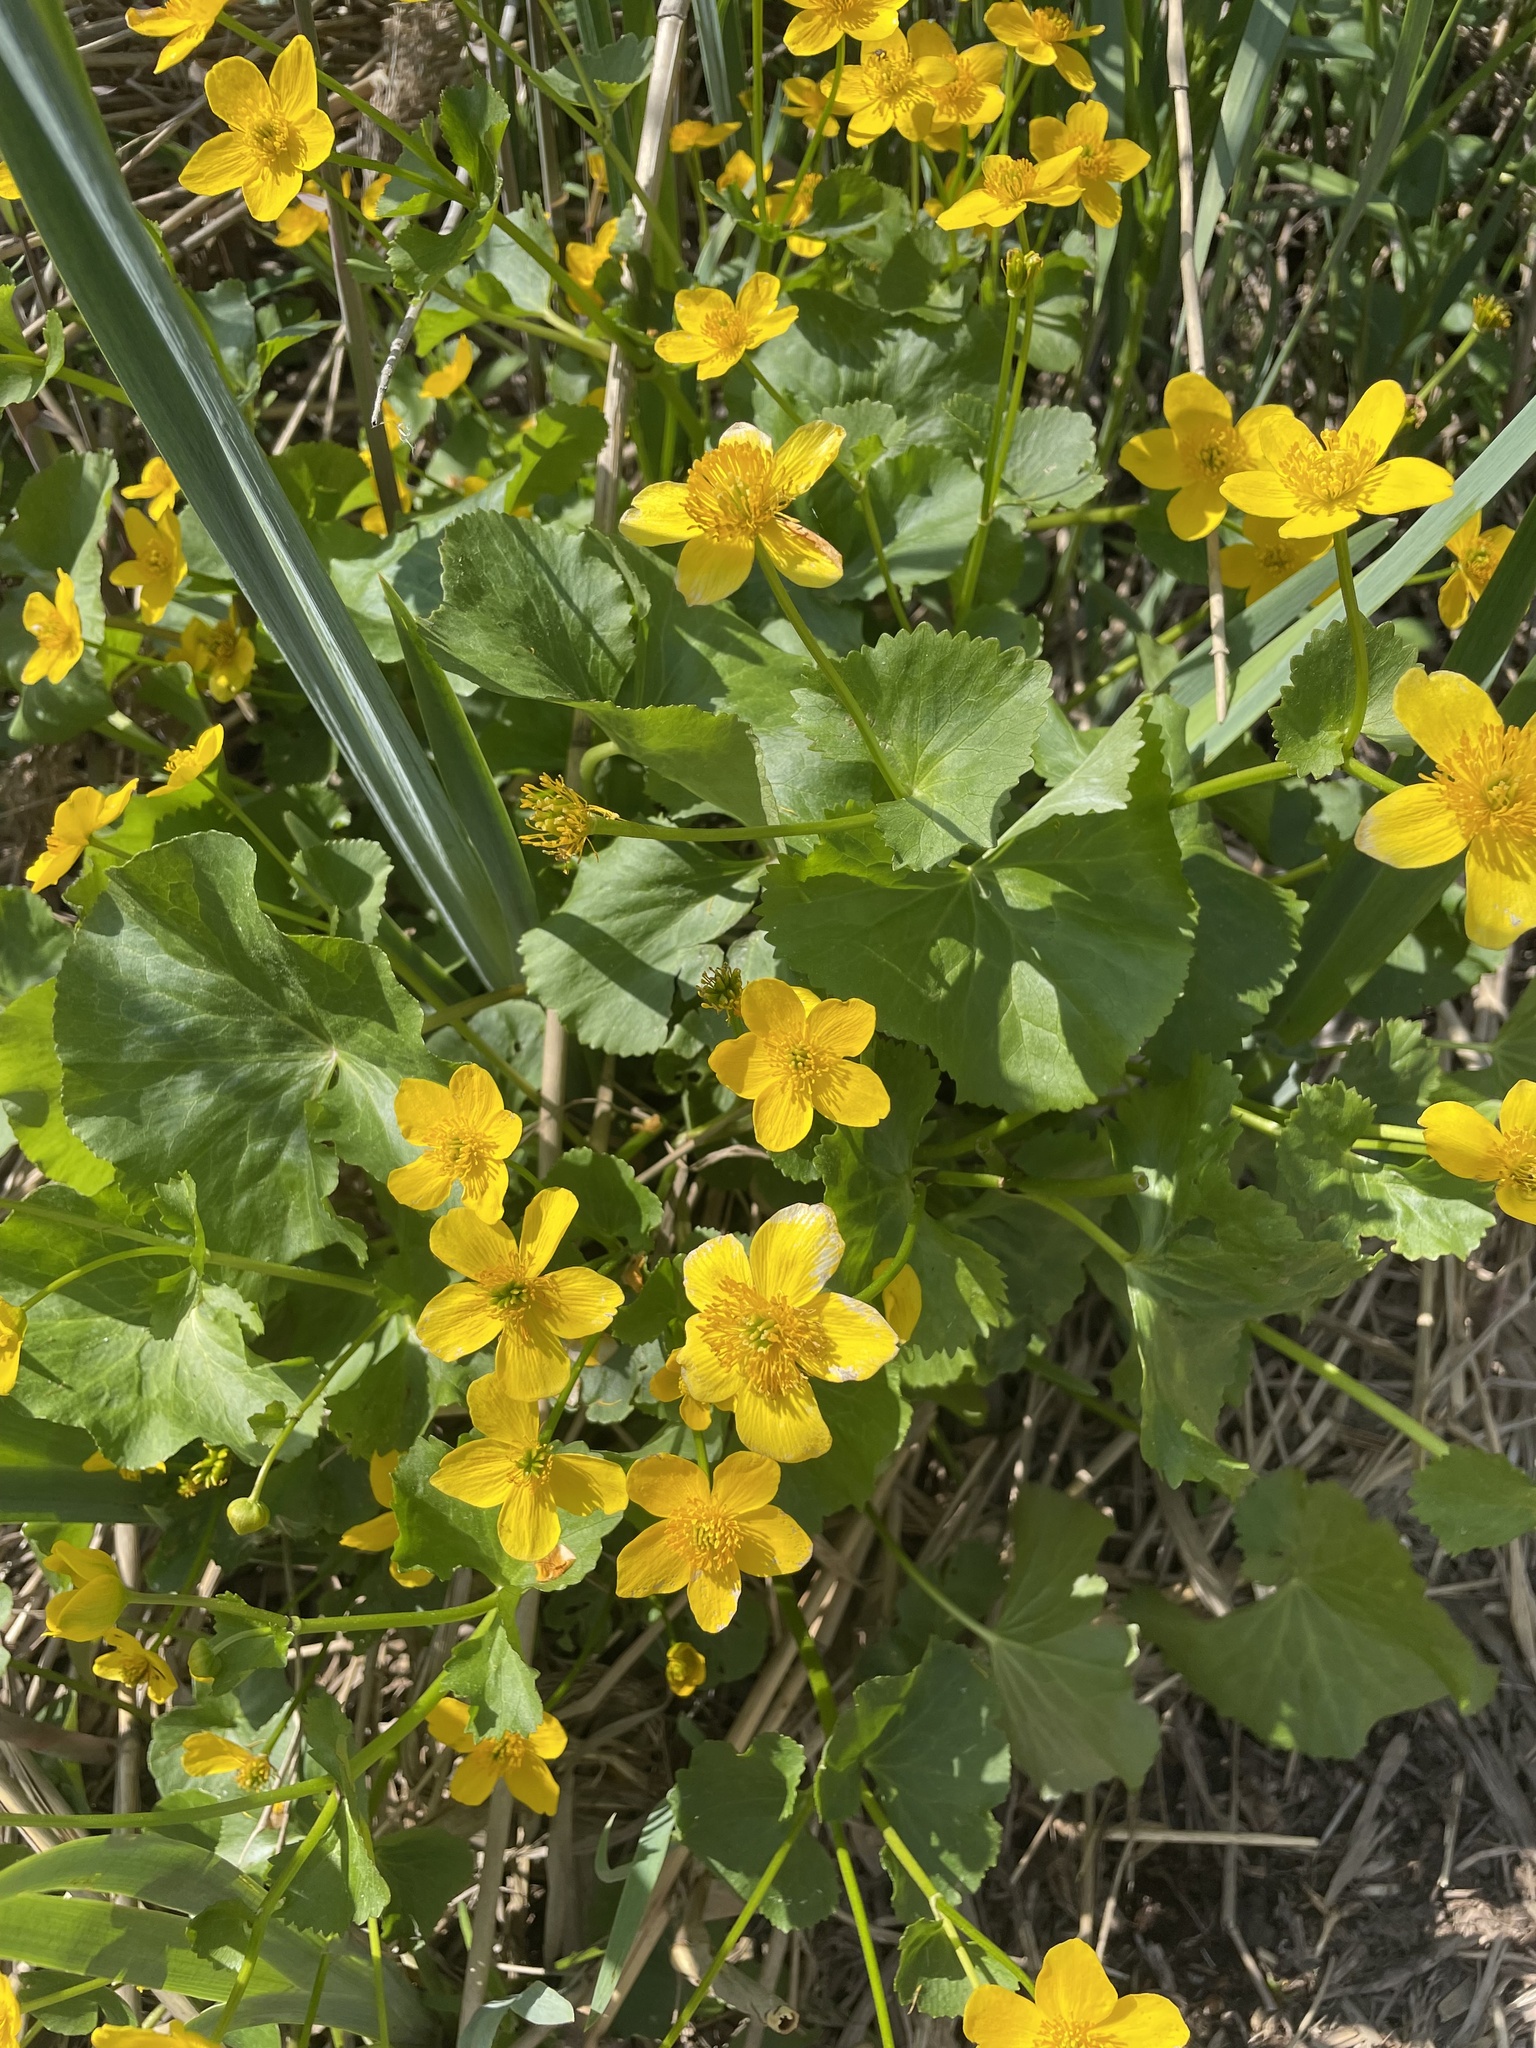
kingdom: Plantae
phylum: Tracheophyta
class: Magnoliopsida
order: Ranunculales
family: Ranunculaceae
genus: Caltha
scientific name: Caltha palustris
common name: Marsh marigold
